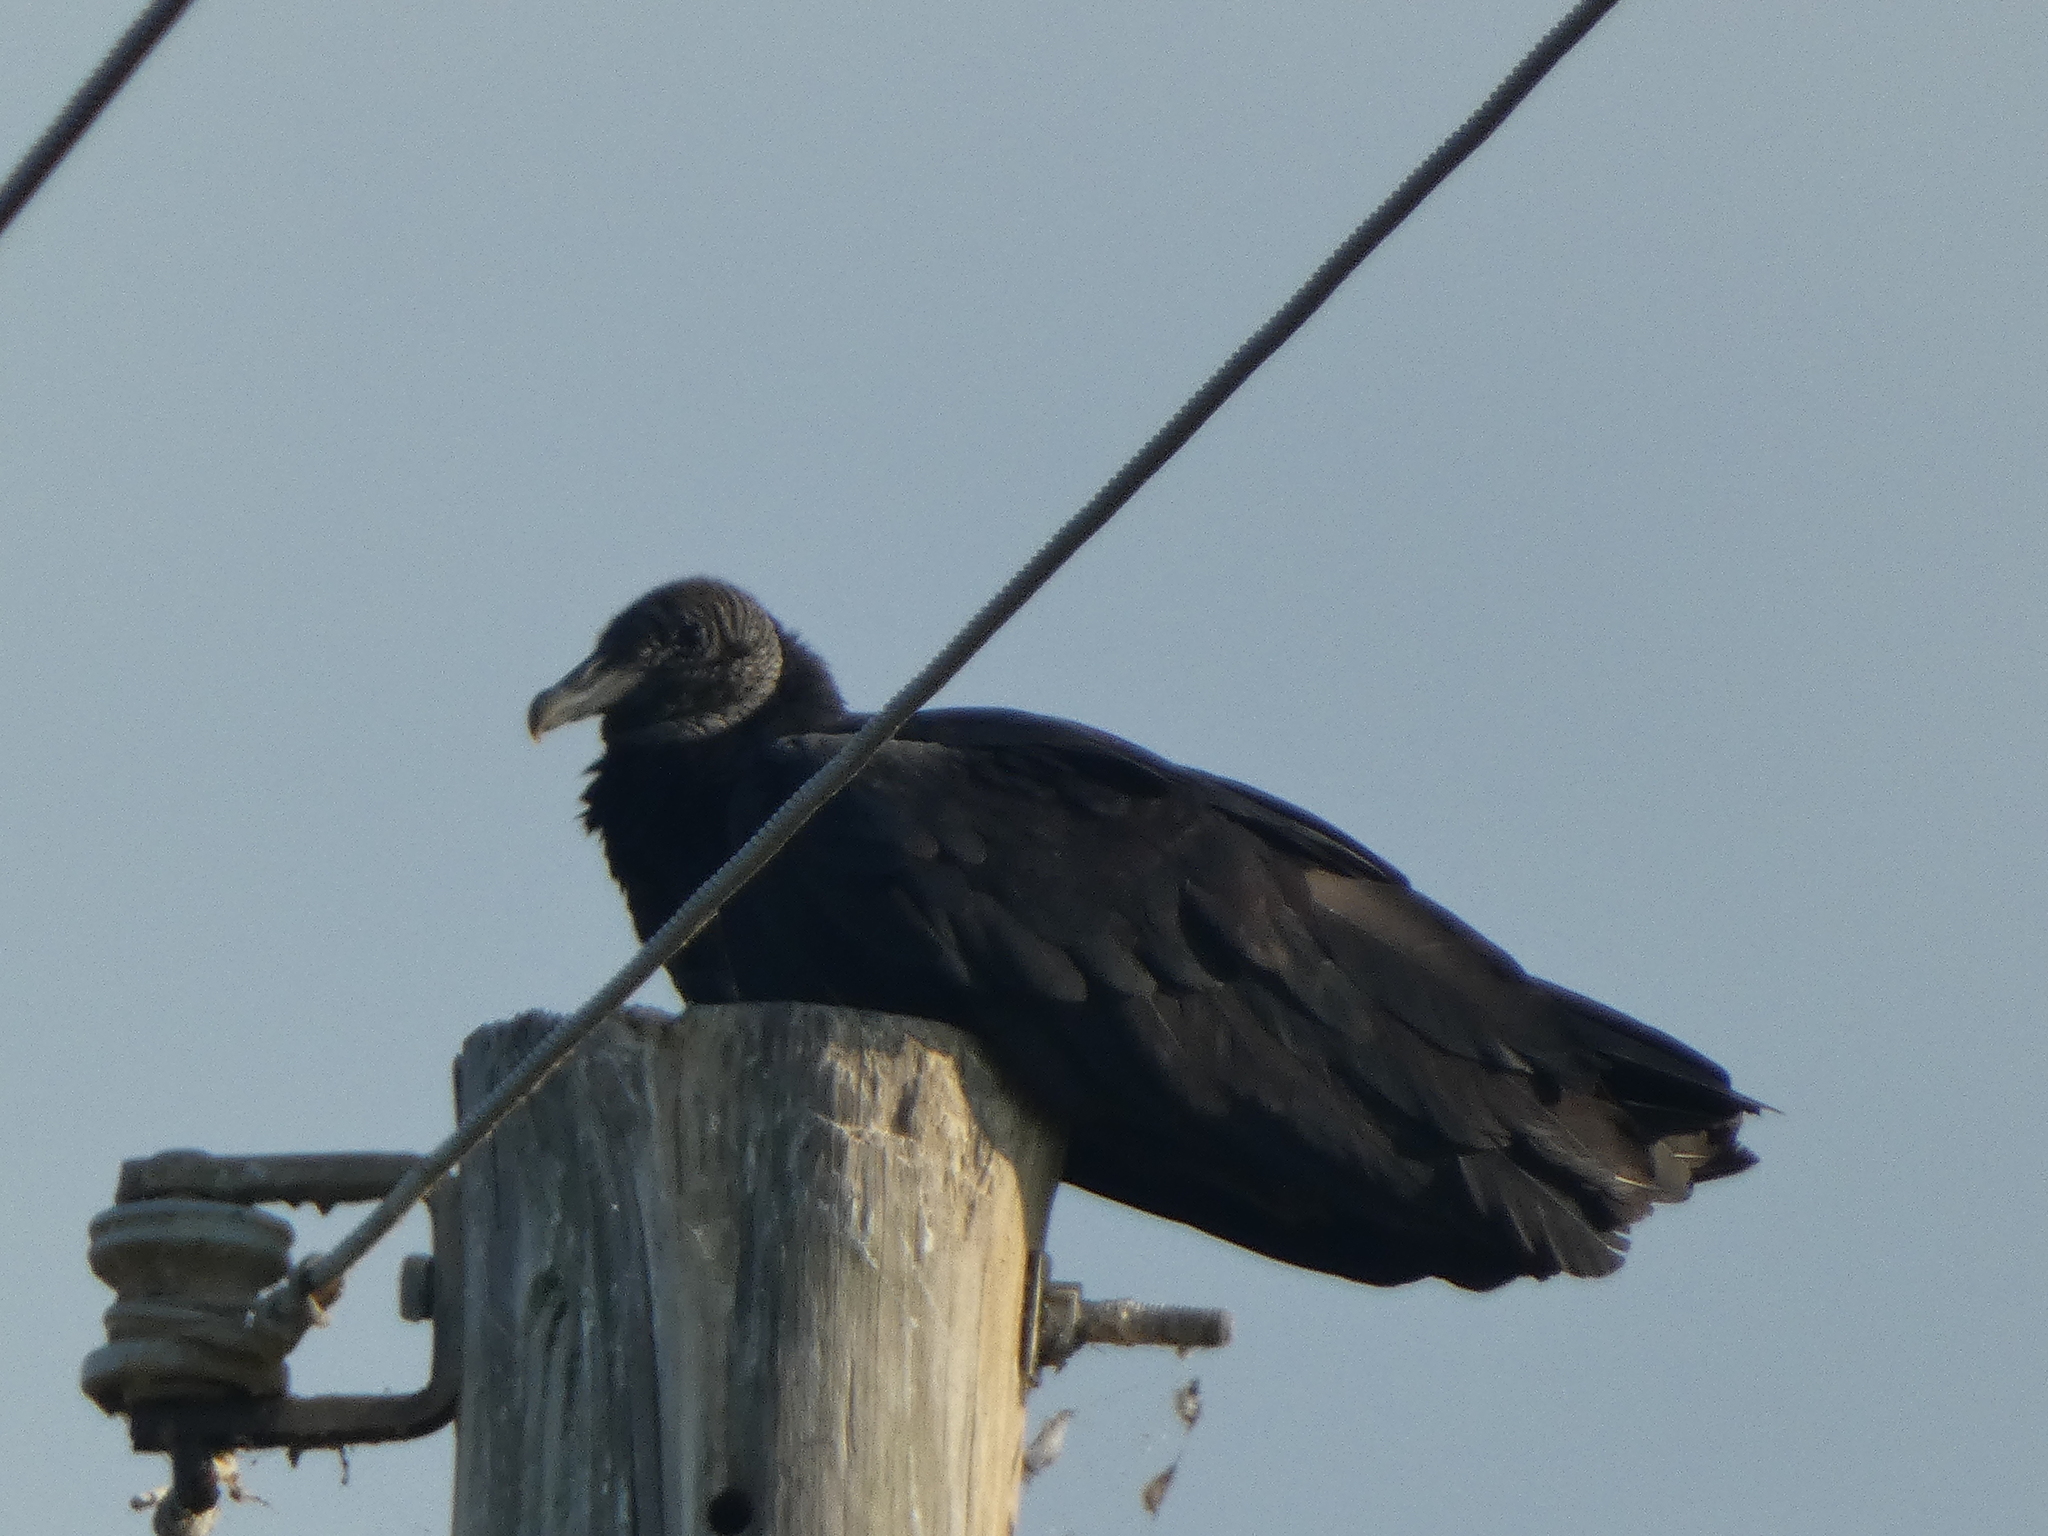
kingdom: Animalia
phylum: Chordata
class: Aves
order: Accipitriformes
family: Cathartidae
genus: Coragyps
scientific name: Coragyps atratus
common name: Black vulture
